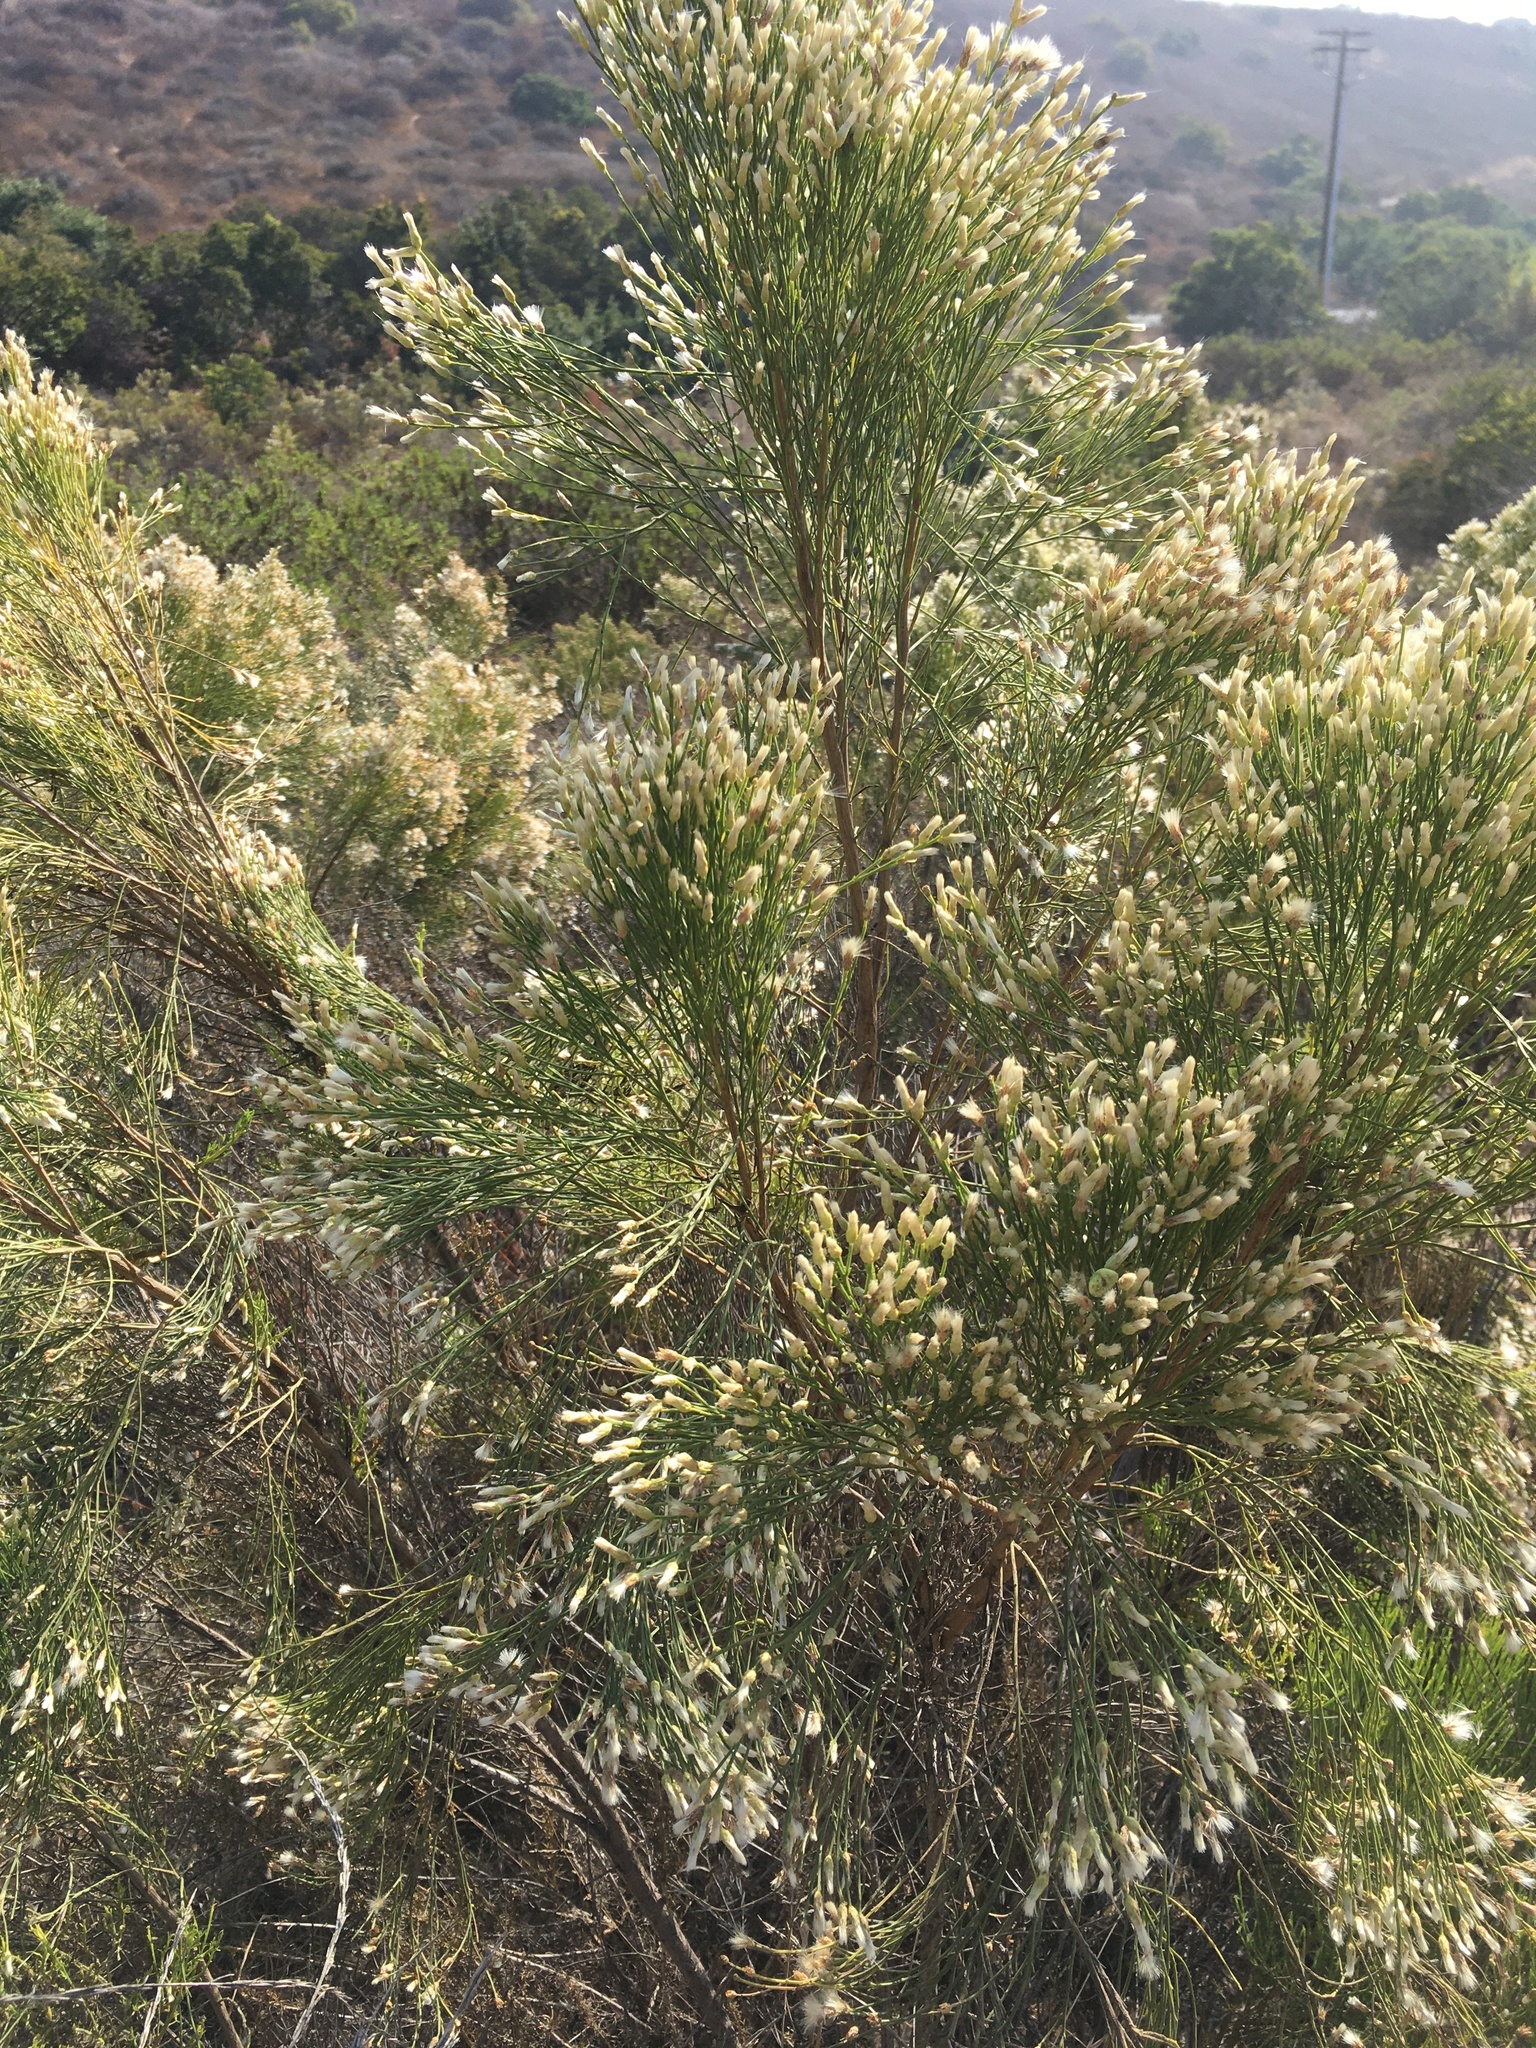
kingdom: Plantae
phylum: Tracheophyta
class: Magnoliopsida
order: Asterales
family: Asteraceae
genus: Baccharis
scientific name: Baccharis sarothroides
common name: Desert-broom
